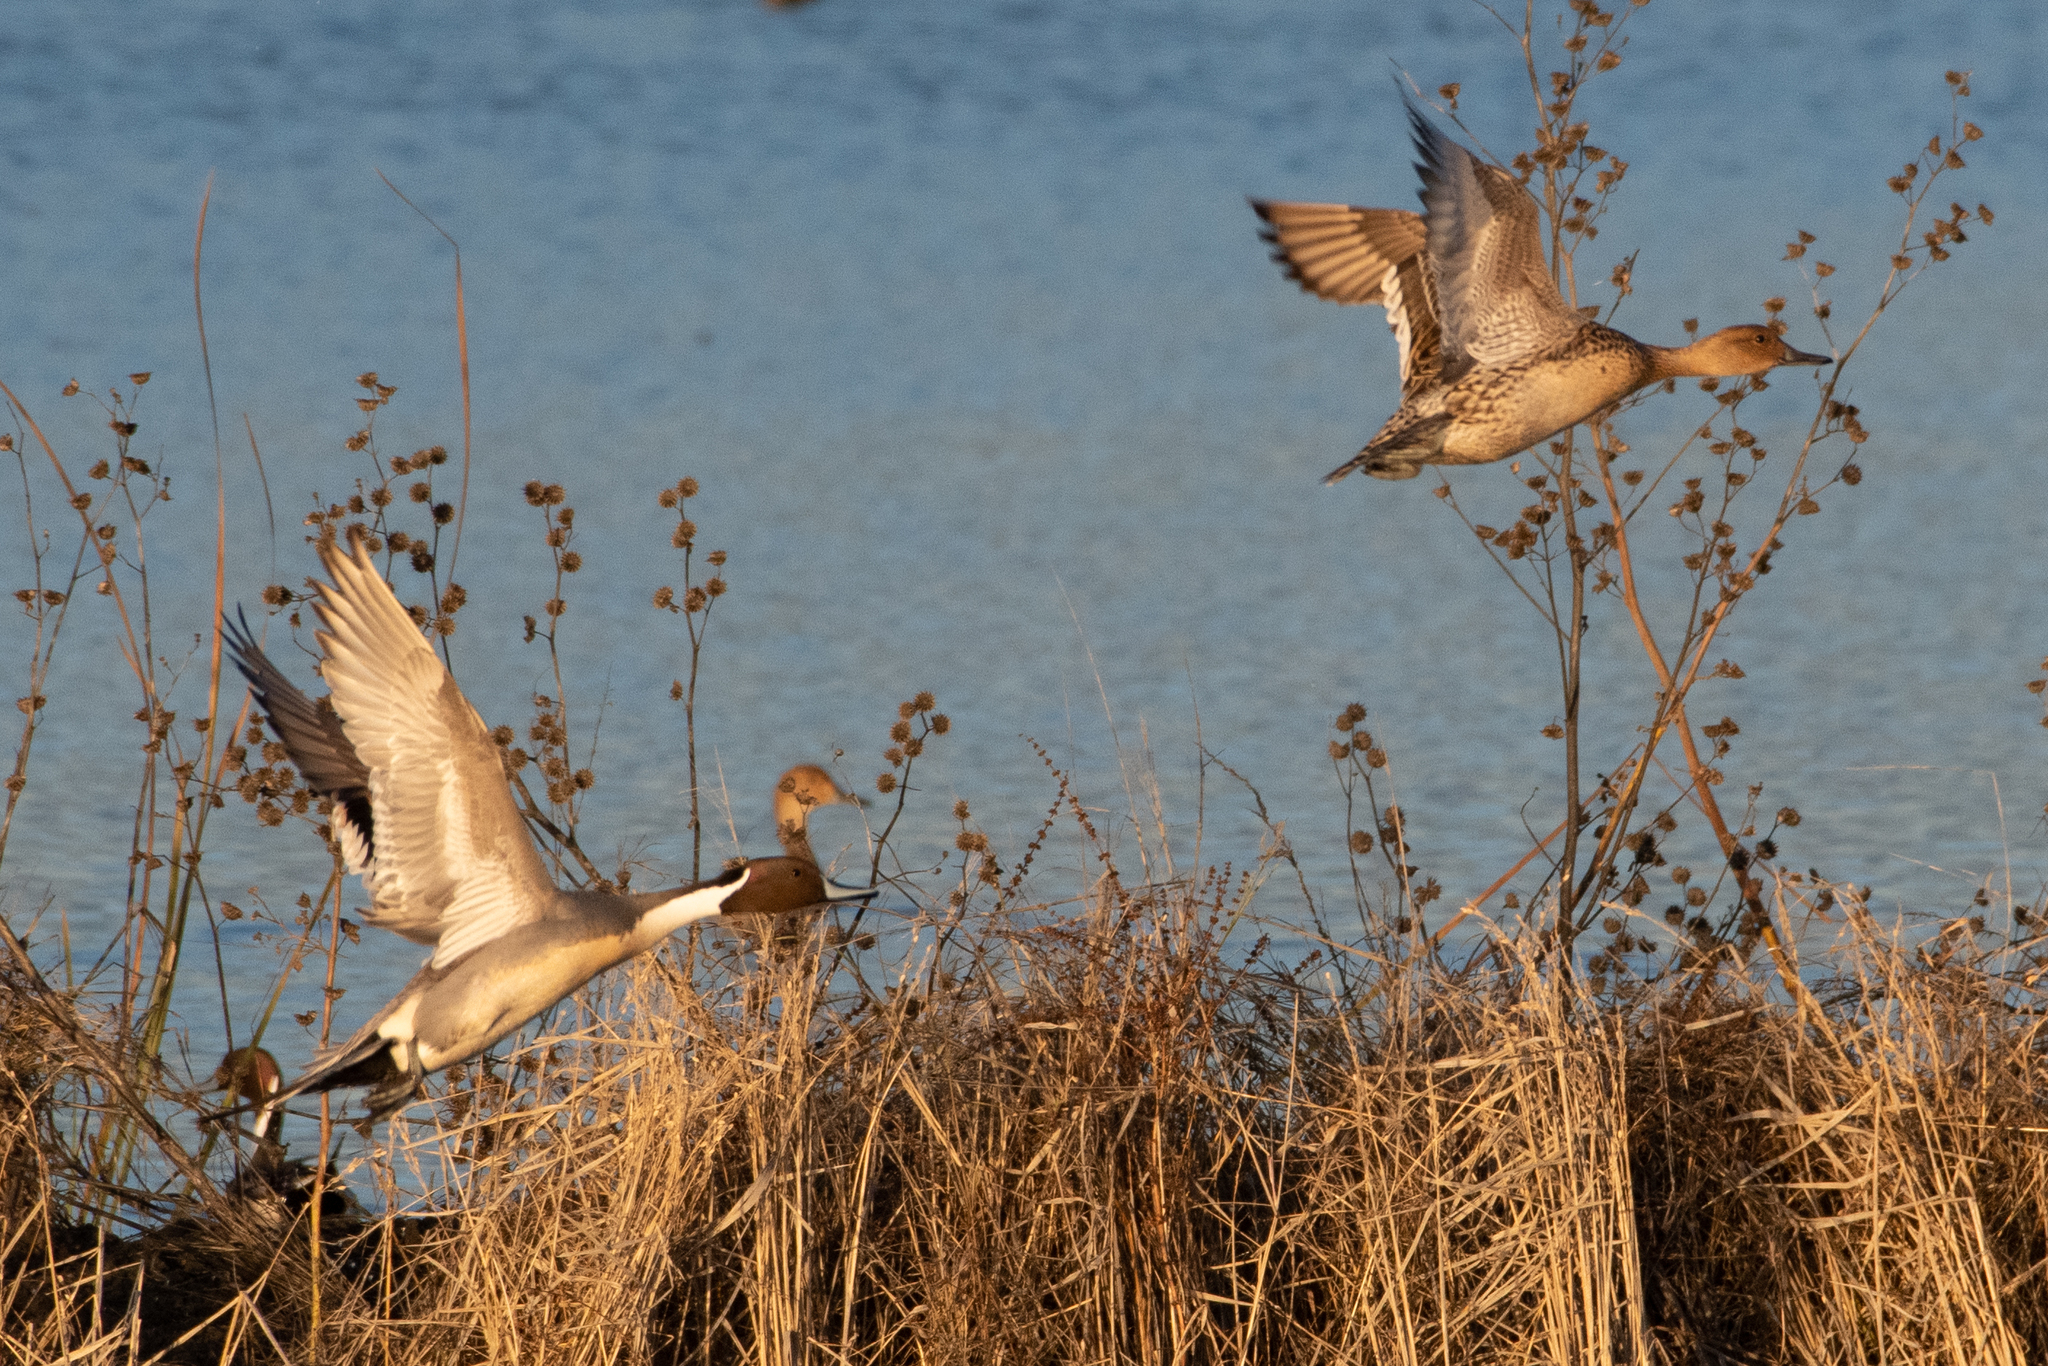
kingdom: Animalia
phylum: Chordata
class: Aves
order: Anseriformes
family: Anatidae
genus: Anas
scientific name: Anas acuta
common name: Northern pintail
